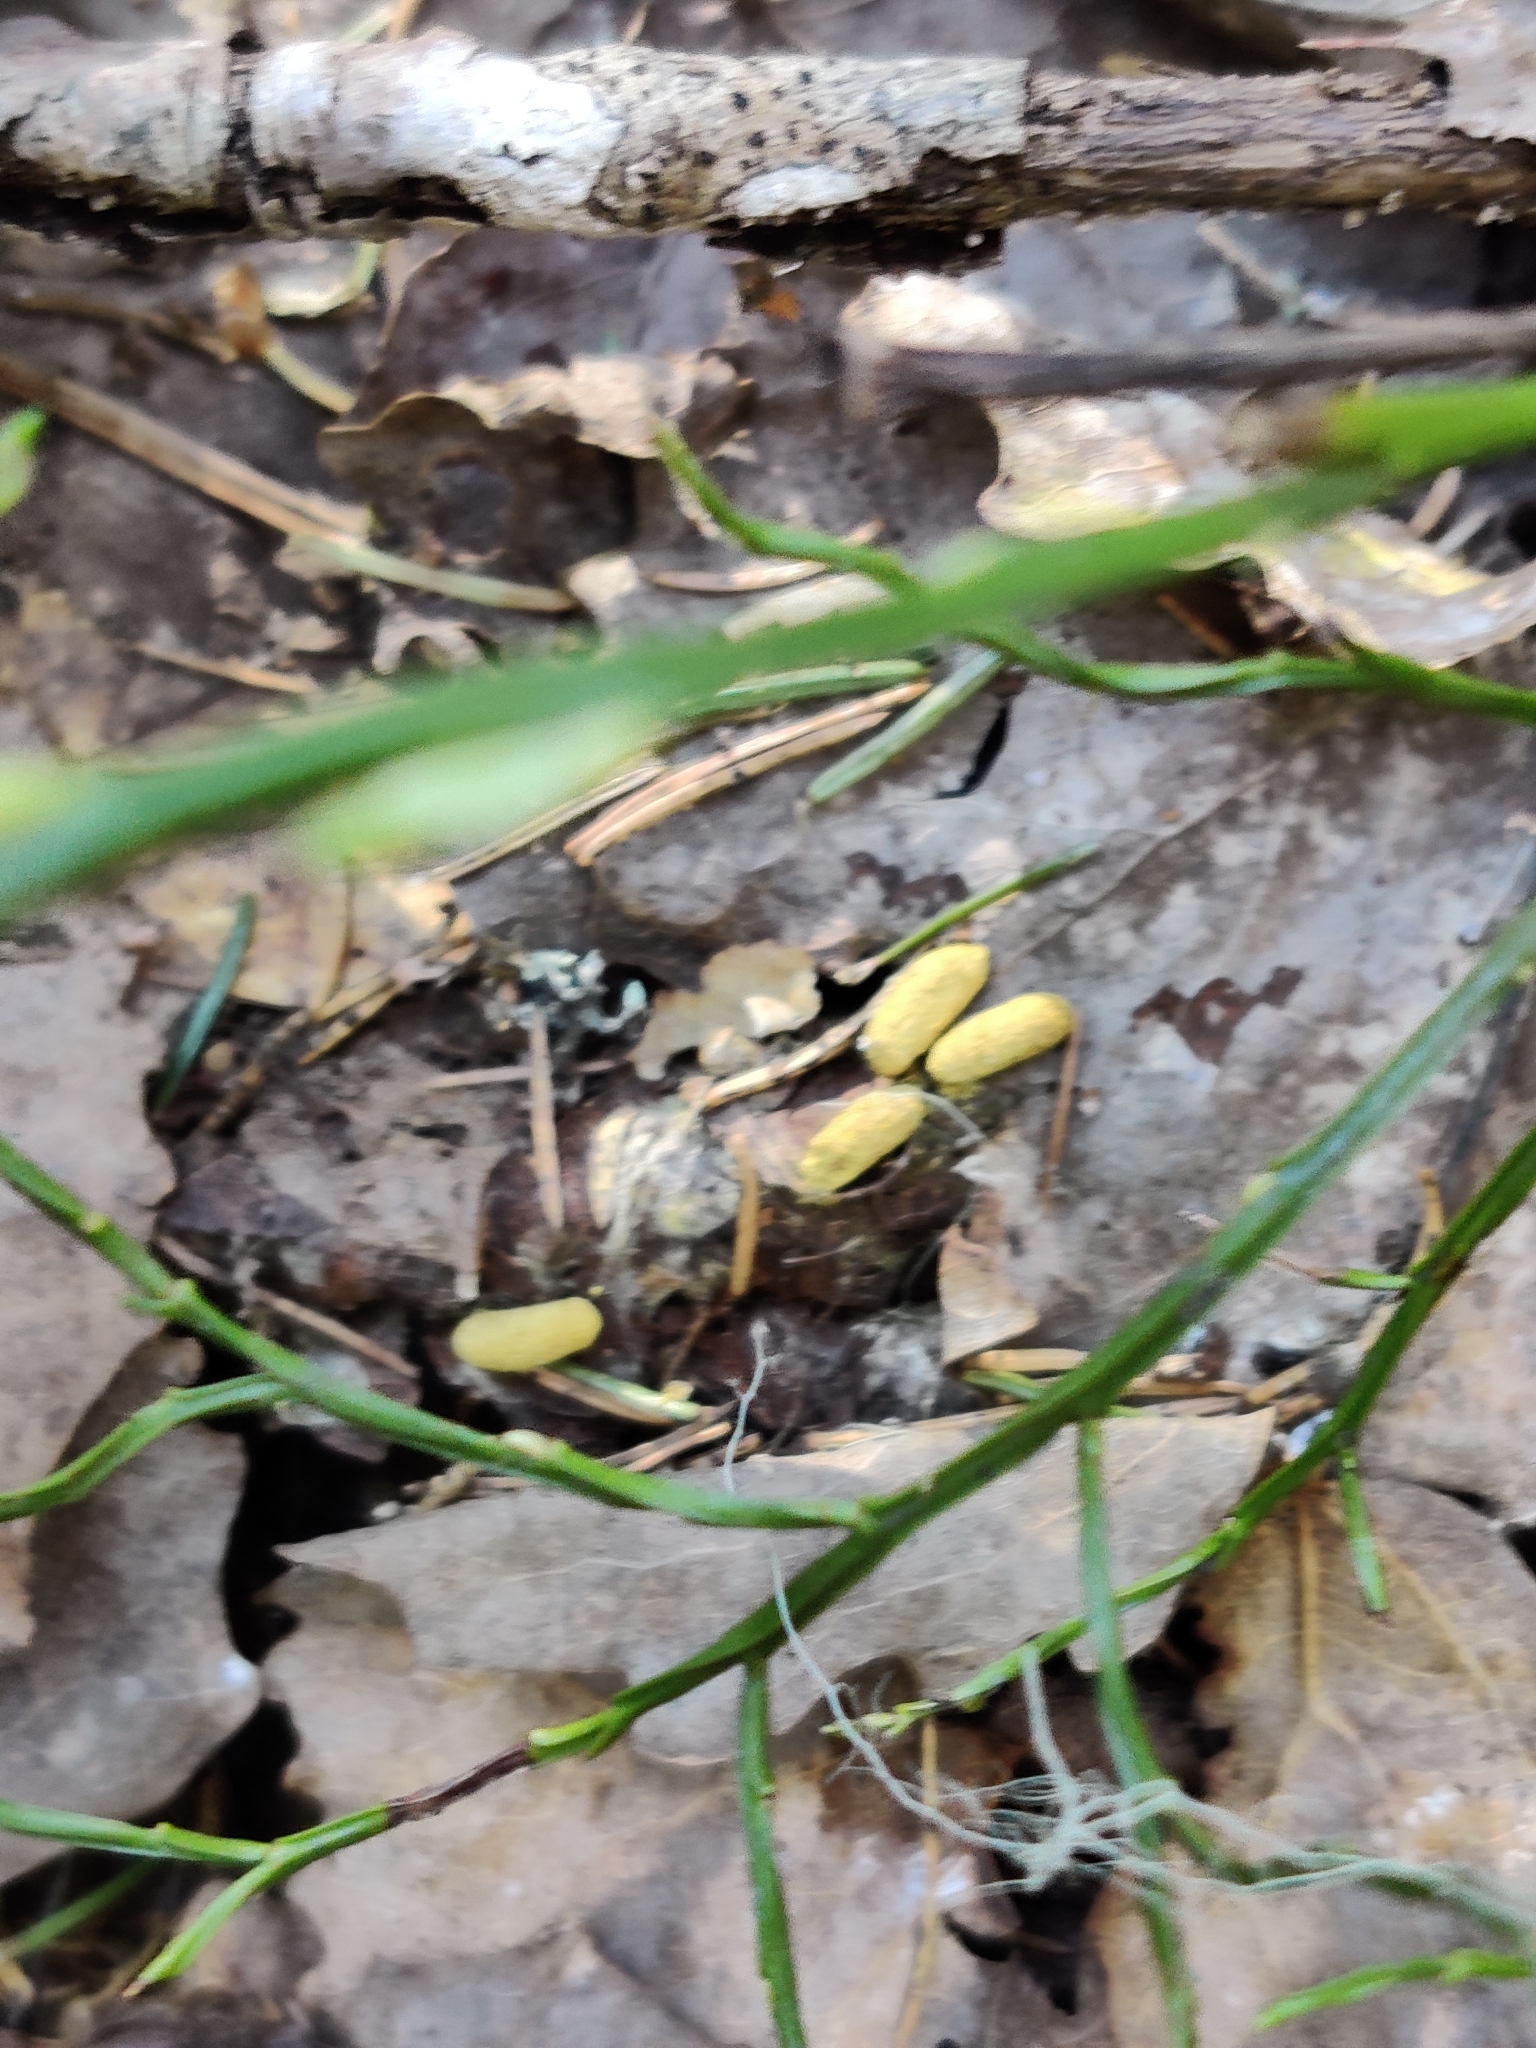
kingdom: Animalia
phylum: Chordata
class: Mammalia
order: Rodentia
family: Sciuridae
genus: Pteromys
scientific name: Pteromys volans
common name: Siberian flying squirrel
